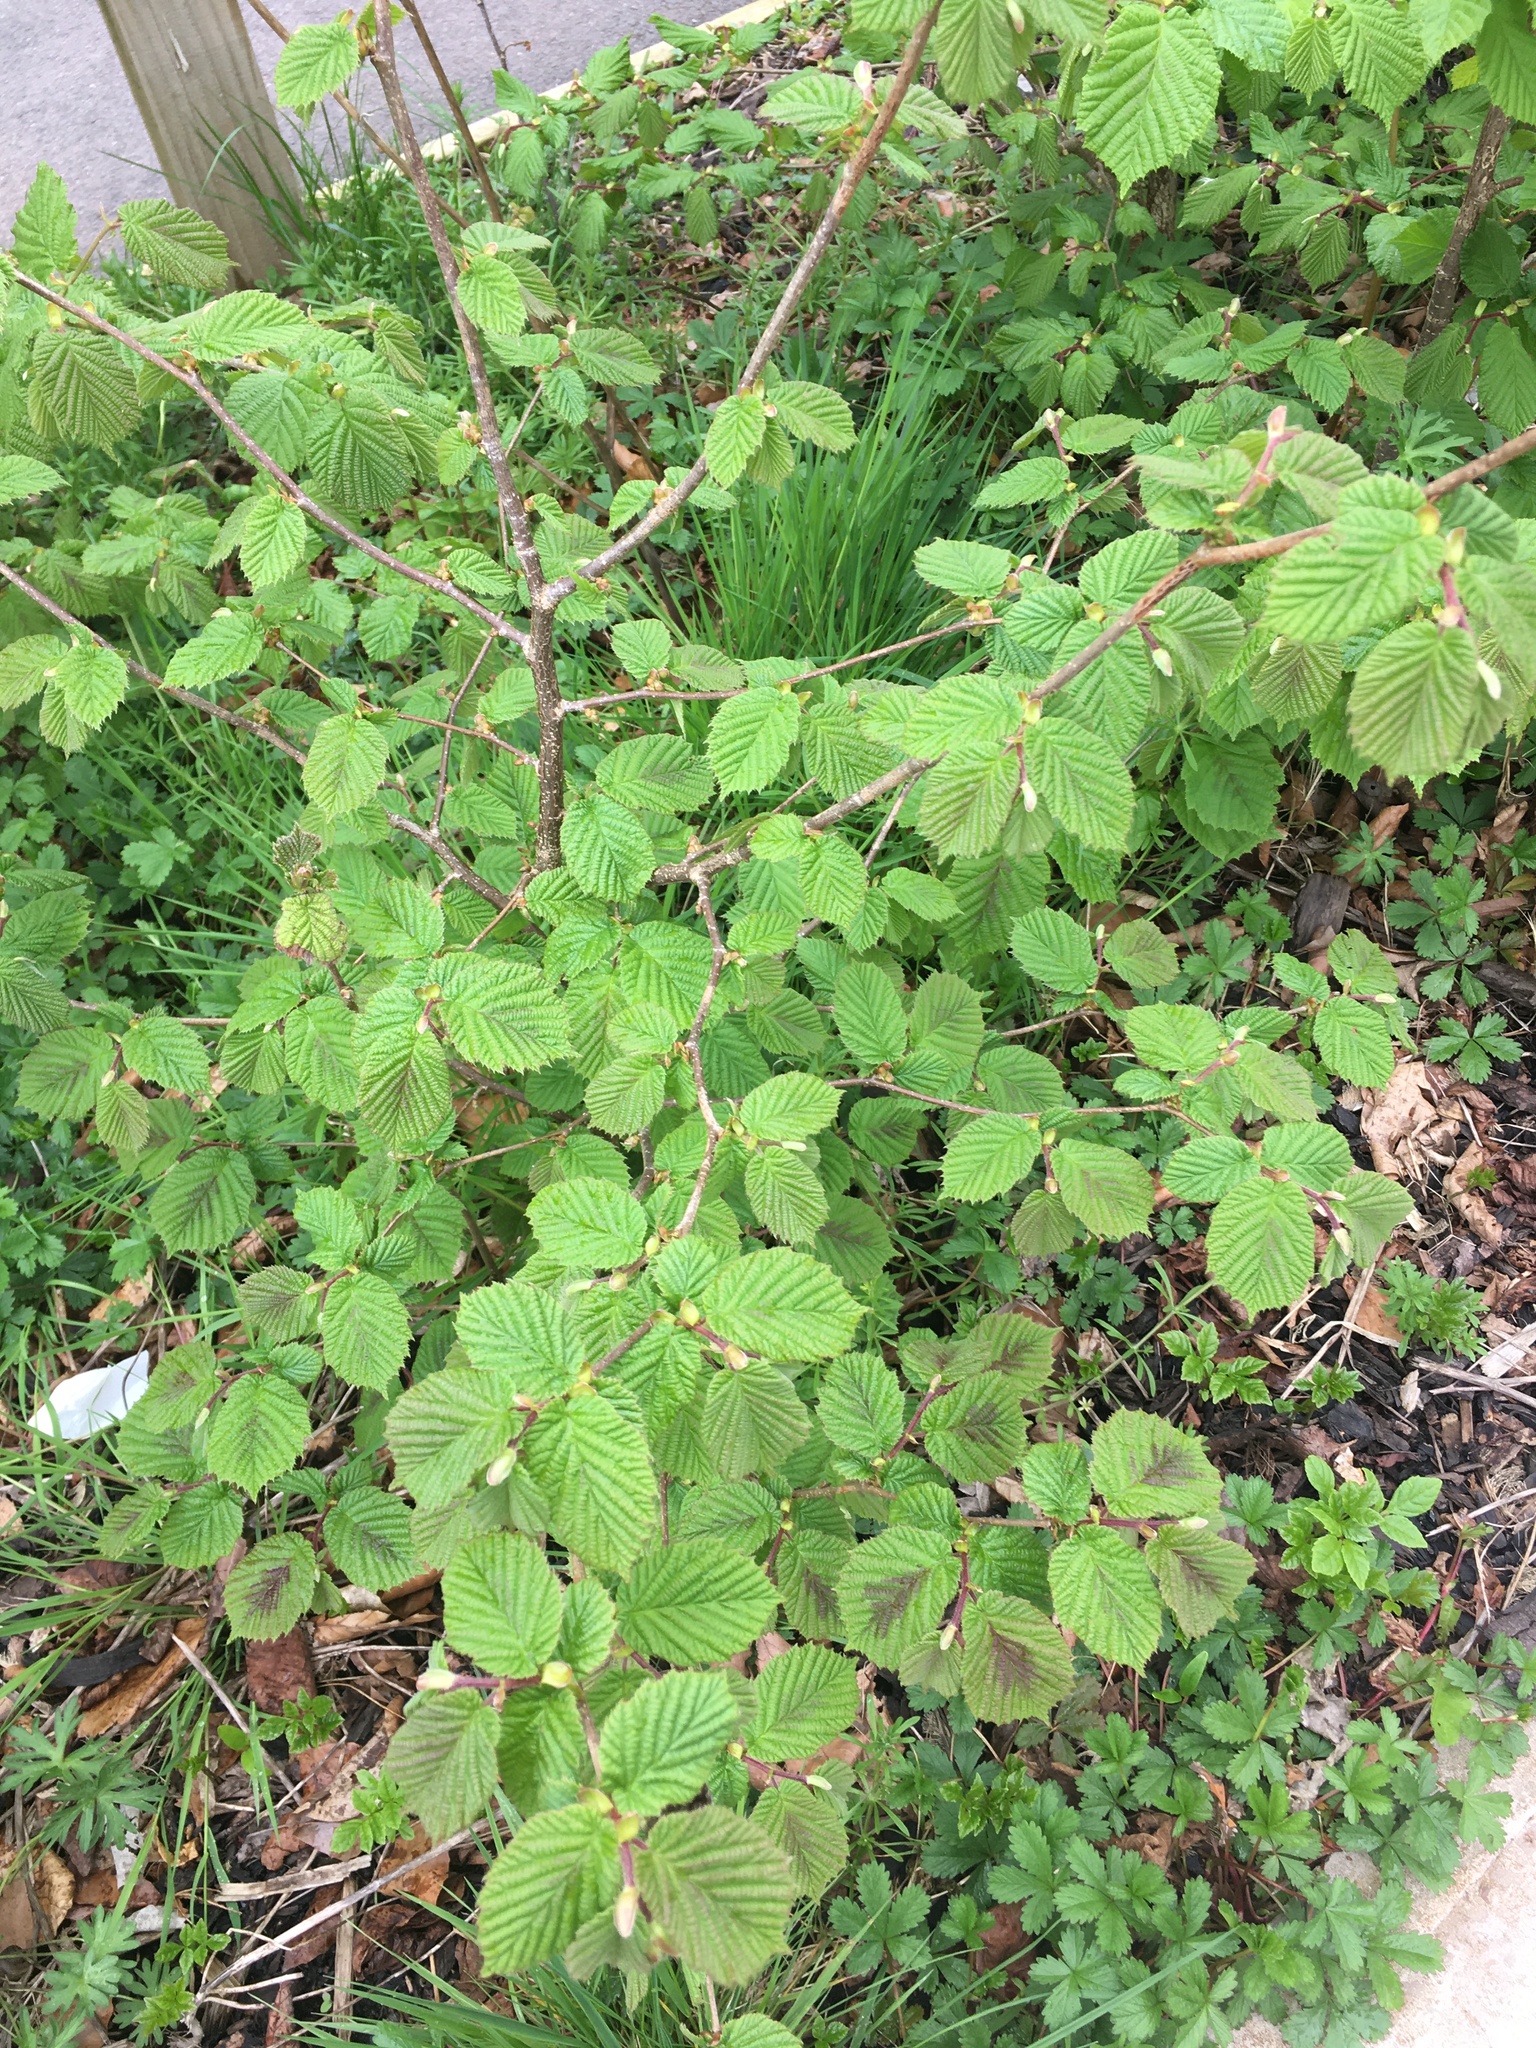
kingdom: Plantae
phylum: Tracheophyta
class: Magnoliopsida
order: Fagales
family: Betulaceae
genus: Corylus
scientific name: Corylus avellana
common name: European hazel
